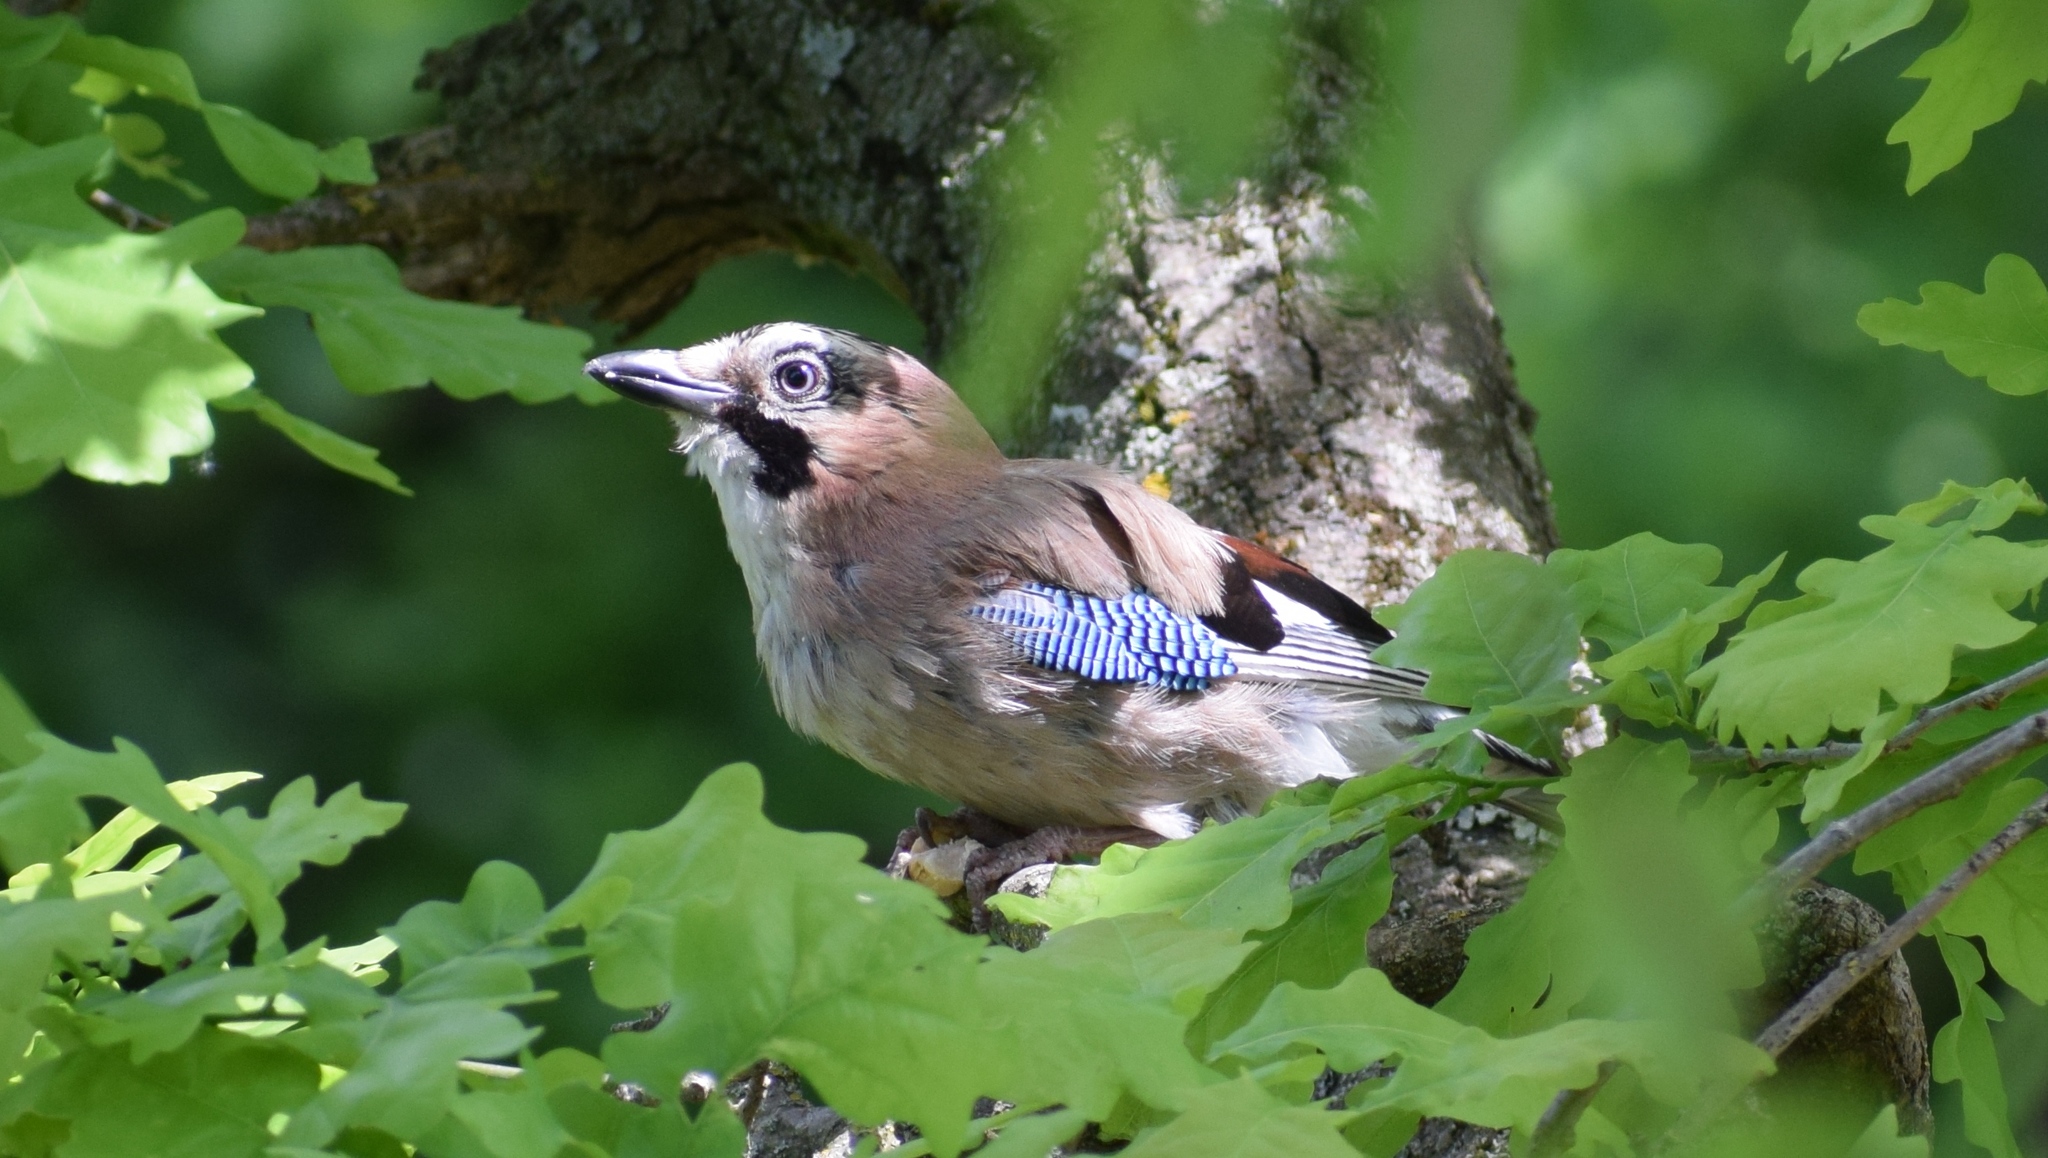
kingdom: Animalia
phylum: Chordata
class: Aves
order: Passeriformes
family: Corvidae
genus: Garrulus
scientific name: Garrulus glandarius
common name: Eurasian jay
